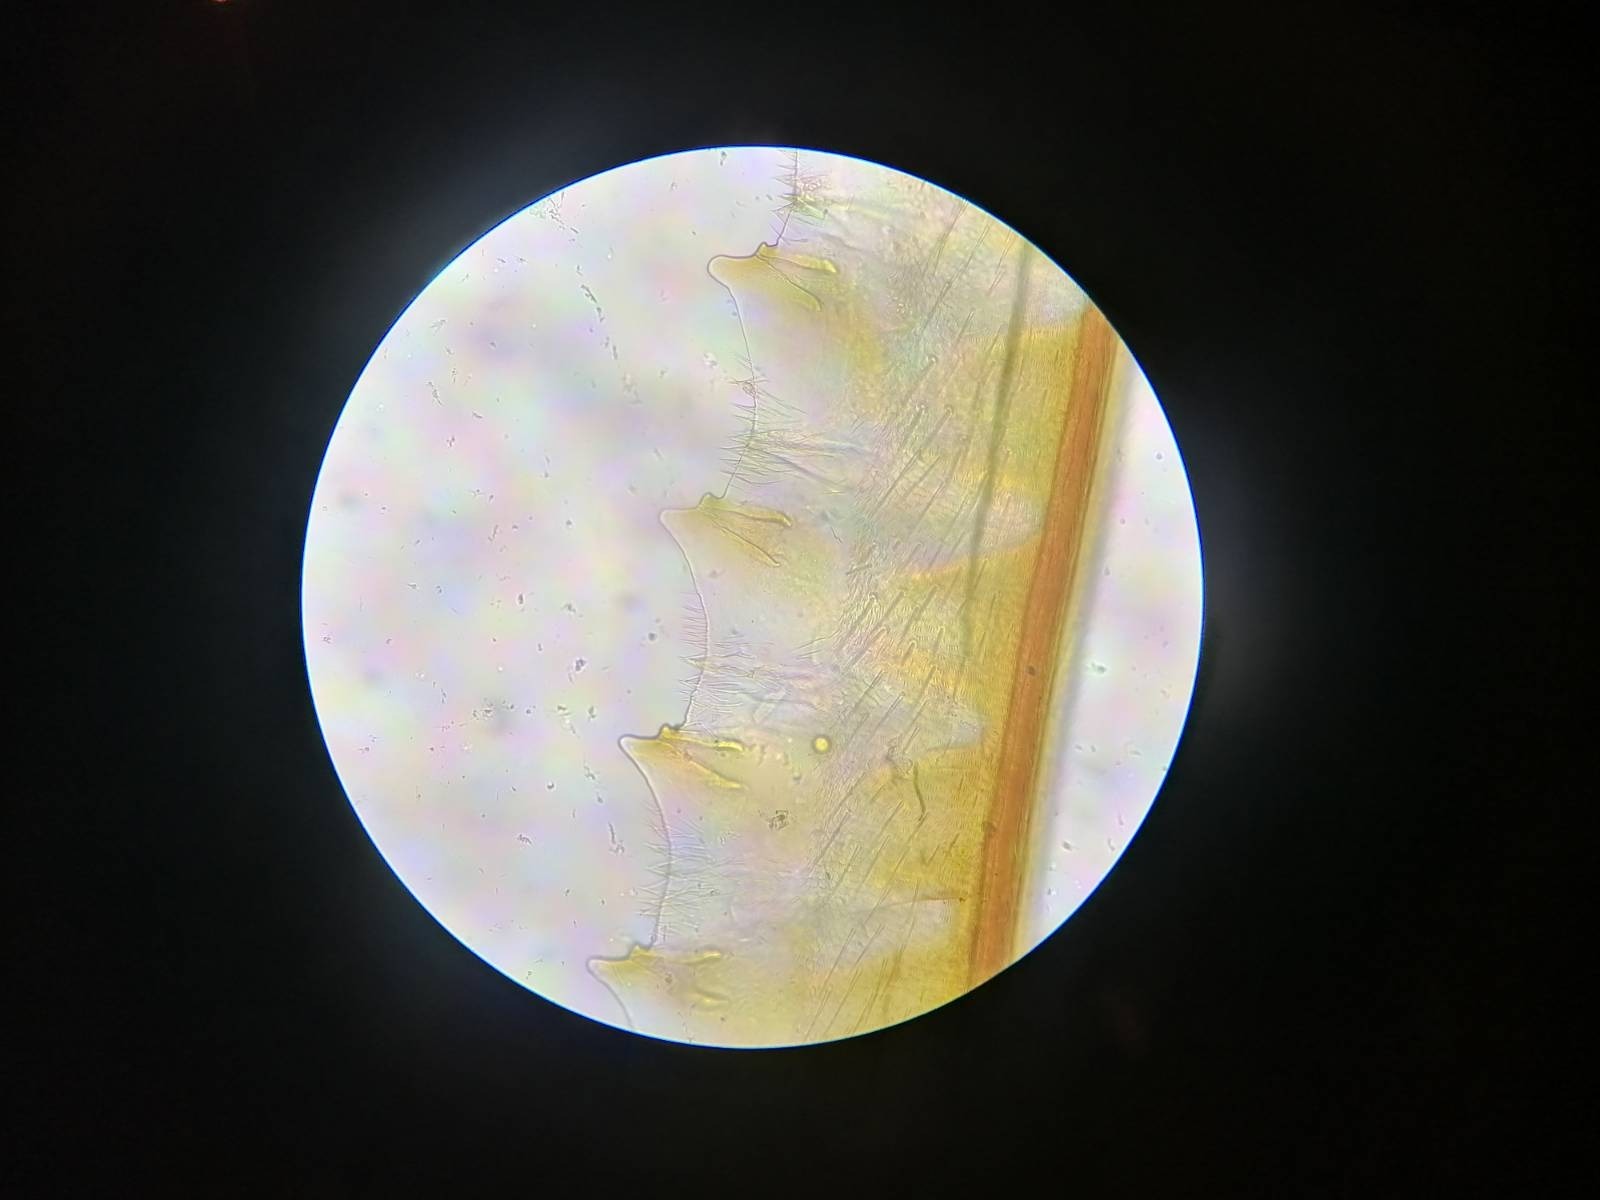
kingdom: Animalia
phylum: Arthropoda
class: Insecta
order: Hymenoptera
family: Tenthredinidae
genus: Tenthredo
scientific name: Tenthredo brevicornis
